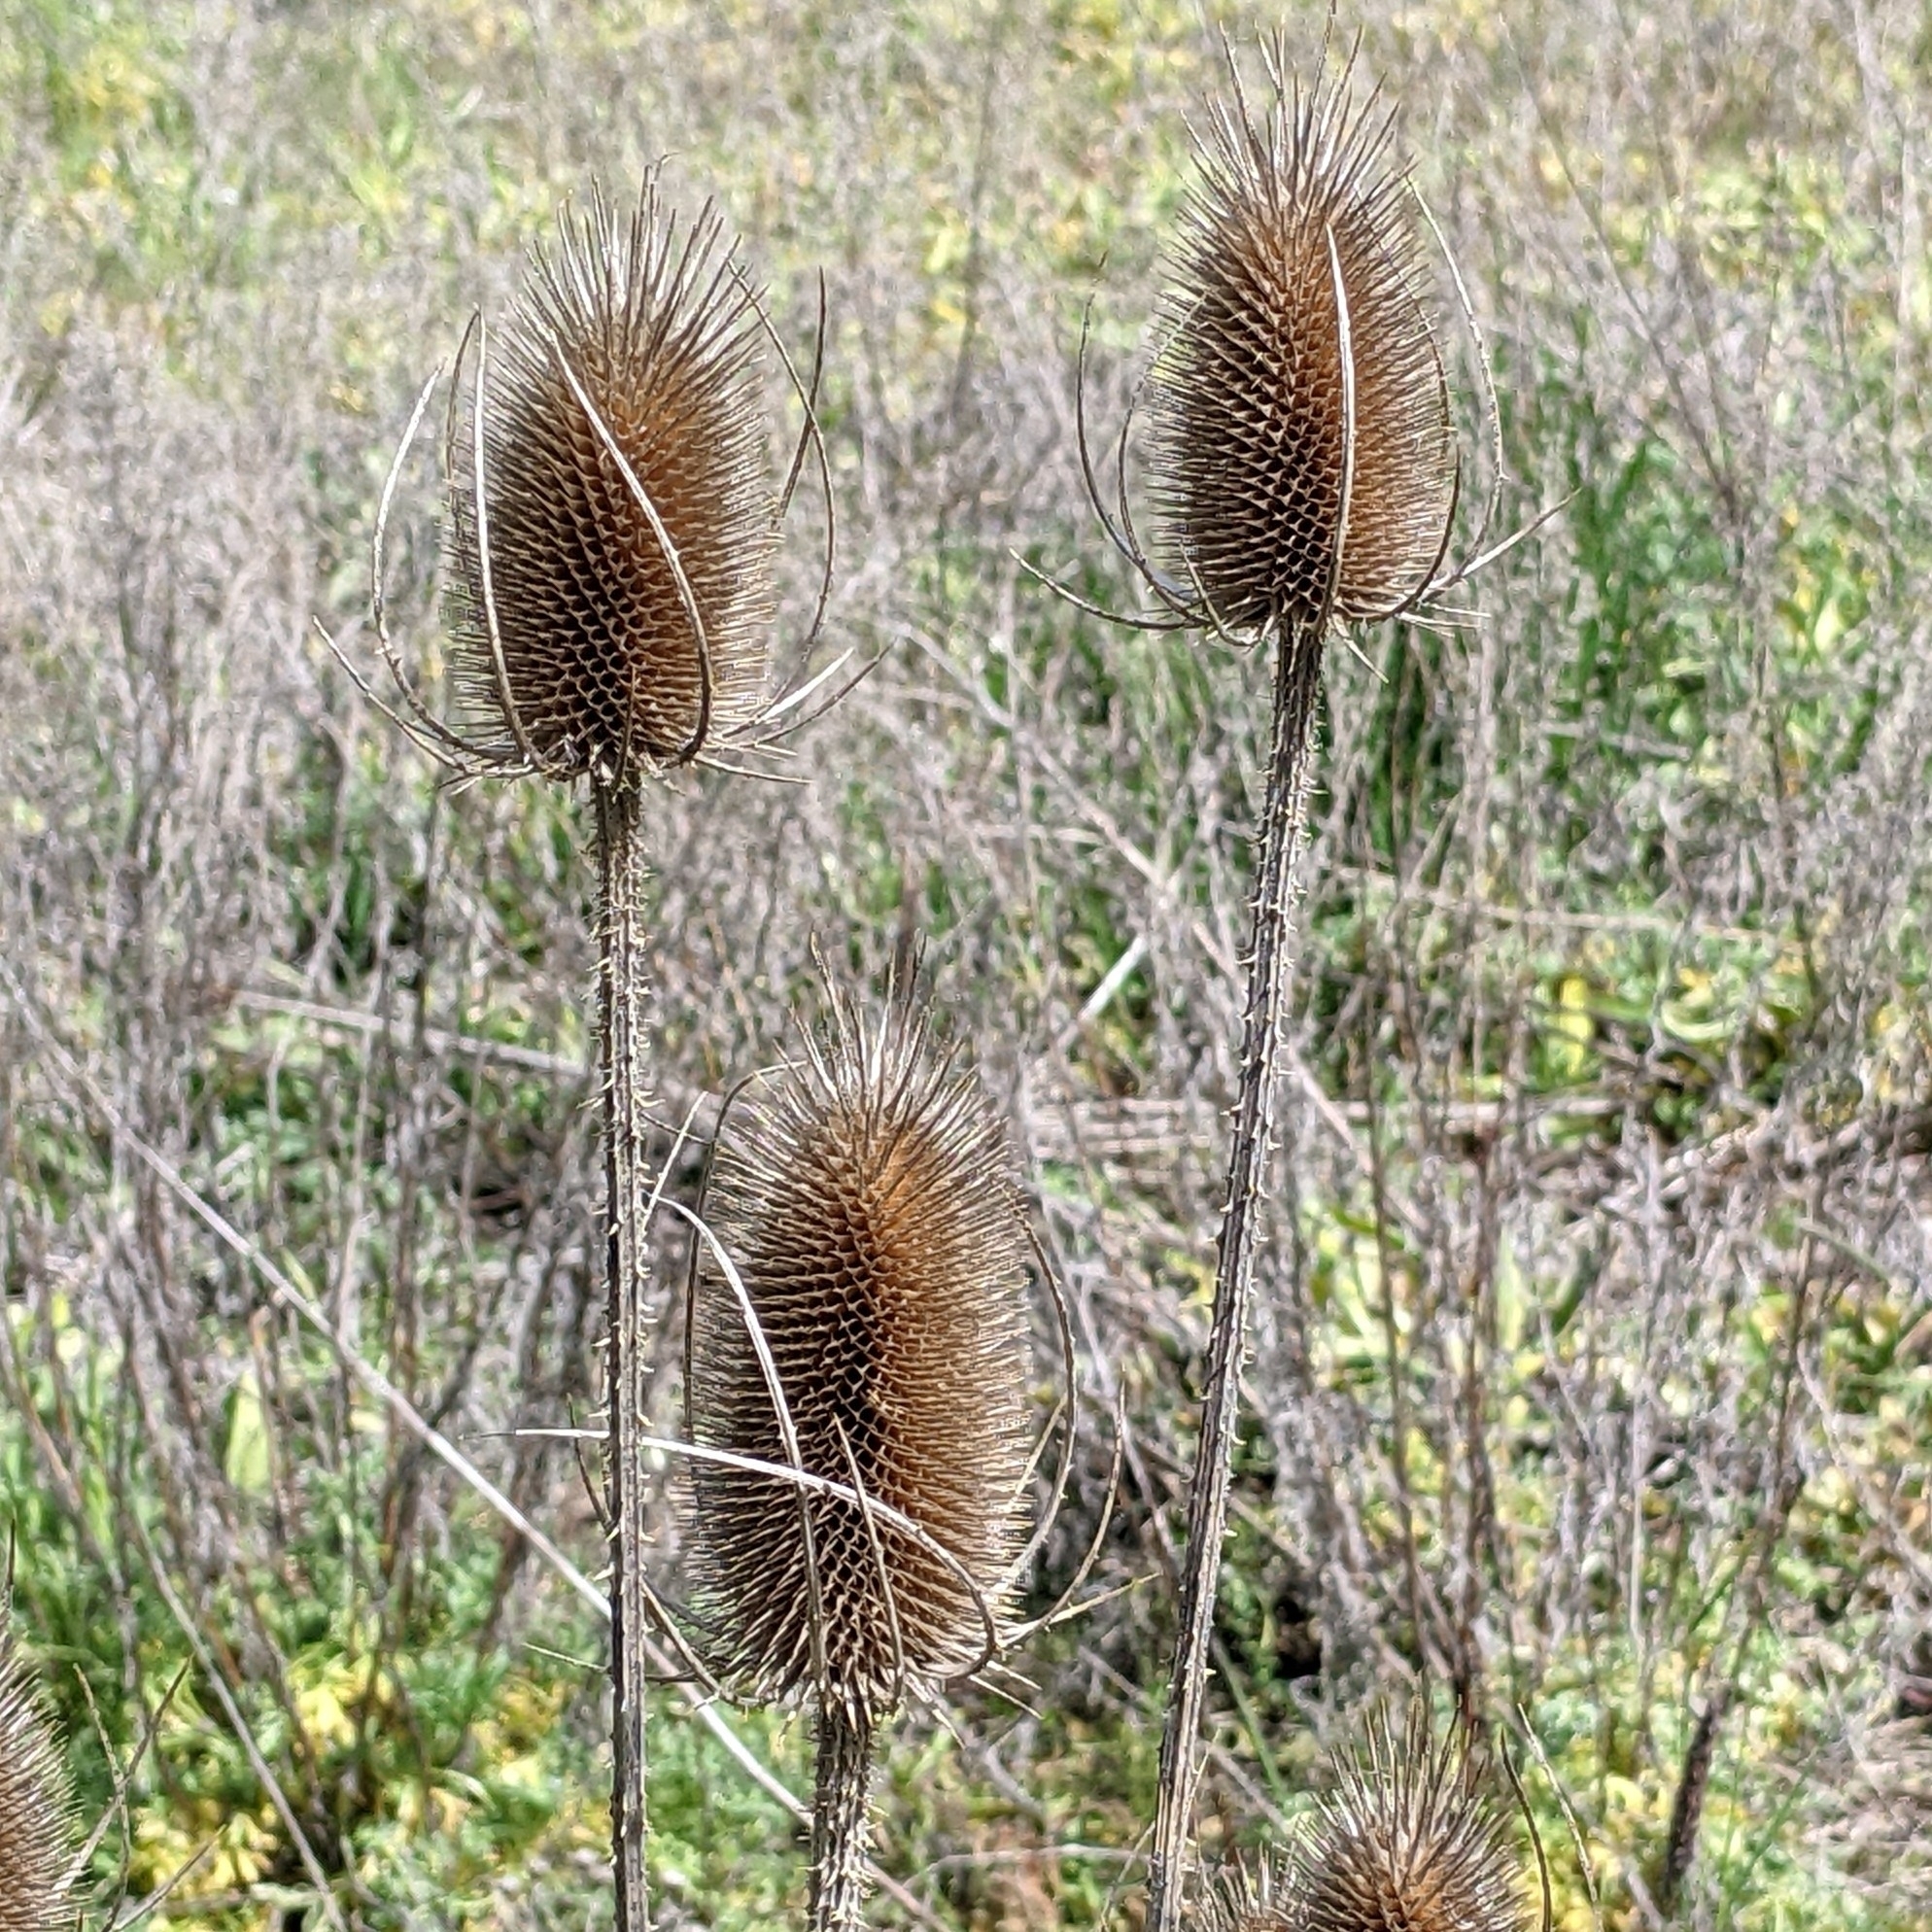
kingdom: Plantae
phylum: Tracheophyta
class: Magnoliopsida
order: Dipsacales
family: Caprifoliaceae
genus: Dipsacus
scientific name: Dipsacus fullonum
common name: Teasel
